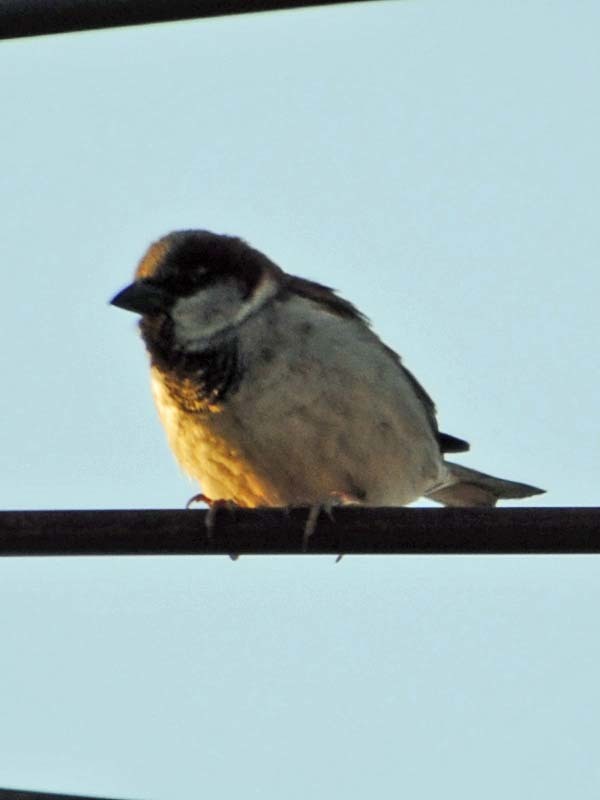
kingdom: Animalia
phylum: Chordata
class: Aves
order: Passeriformes
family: Passeridae
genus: Passer
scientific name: Passer domesticus
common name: House sparrow
